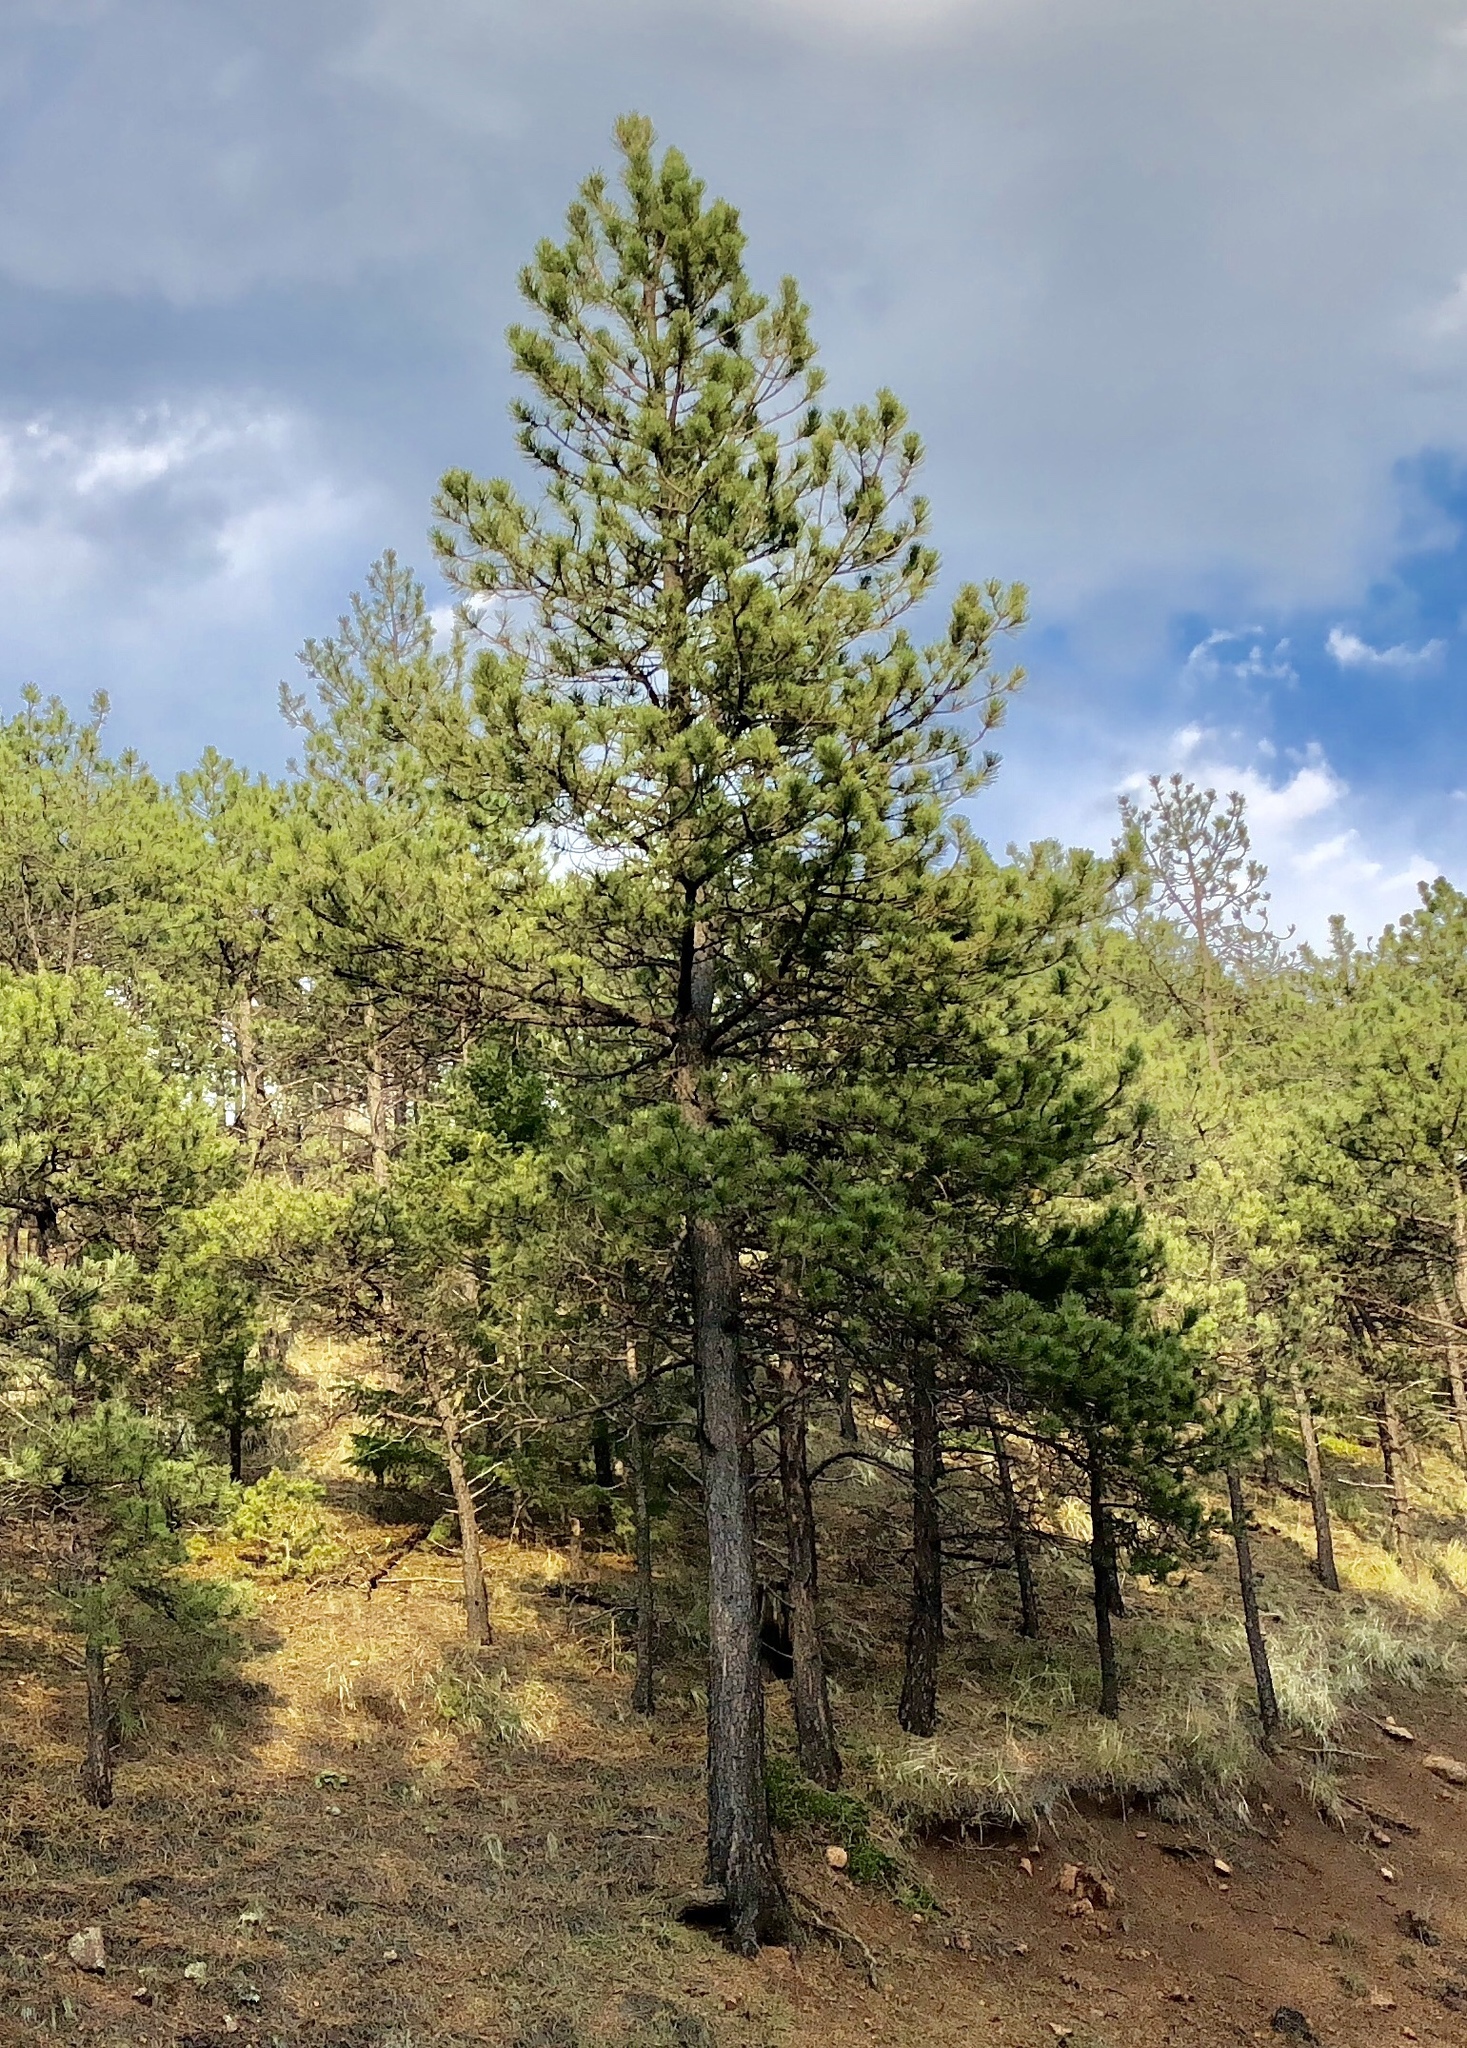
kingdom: Plantae
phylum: Tracheophyta
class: Pinopsida
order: Pinales
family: Pinaceae
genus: Pinus
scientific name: Pinus ponderosa
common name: Western yellow-pine
